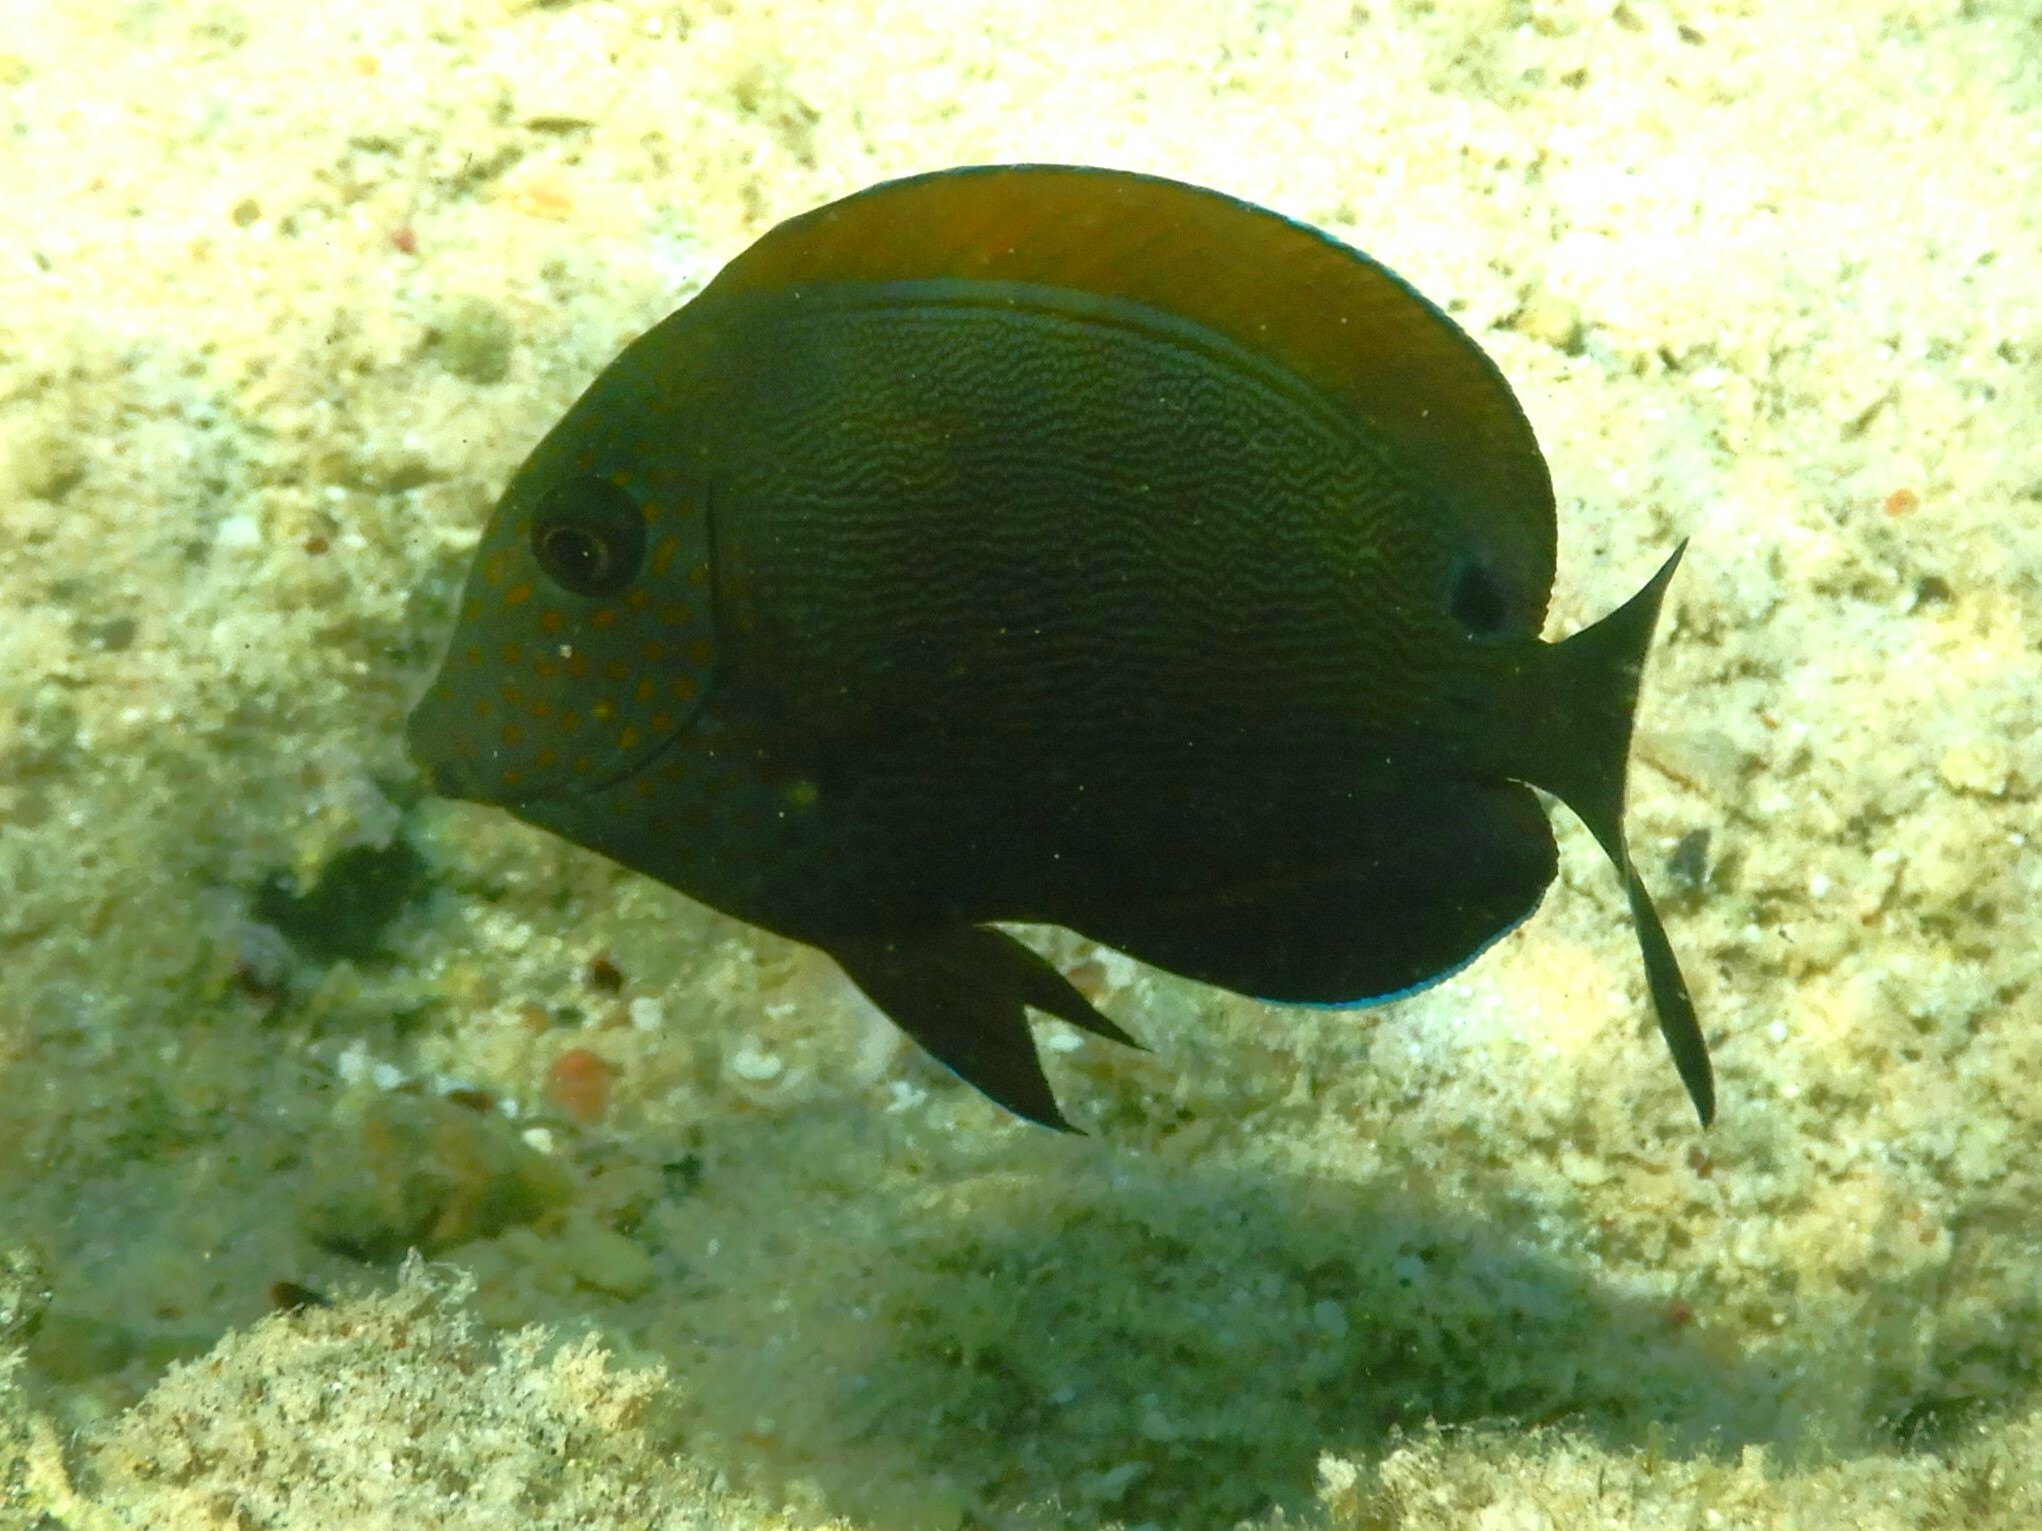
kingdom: Animalia
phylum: Chordata
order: Perciformes
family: Acanthuridae
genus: Acanthurus
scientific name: Acanthurus nigrofuscus
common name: Blackspot surgeonfish
